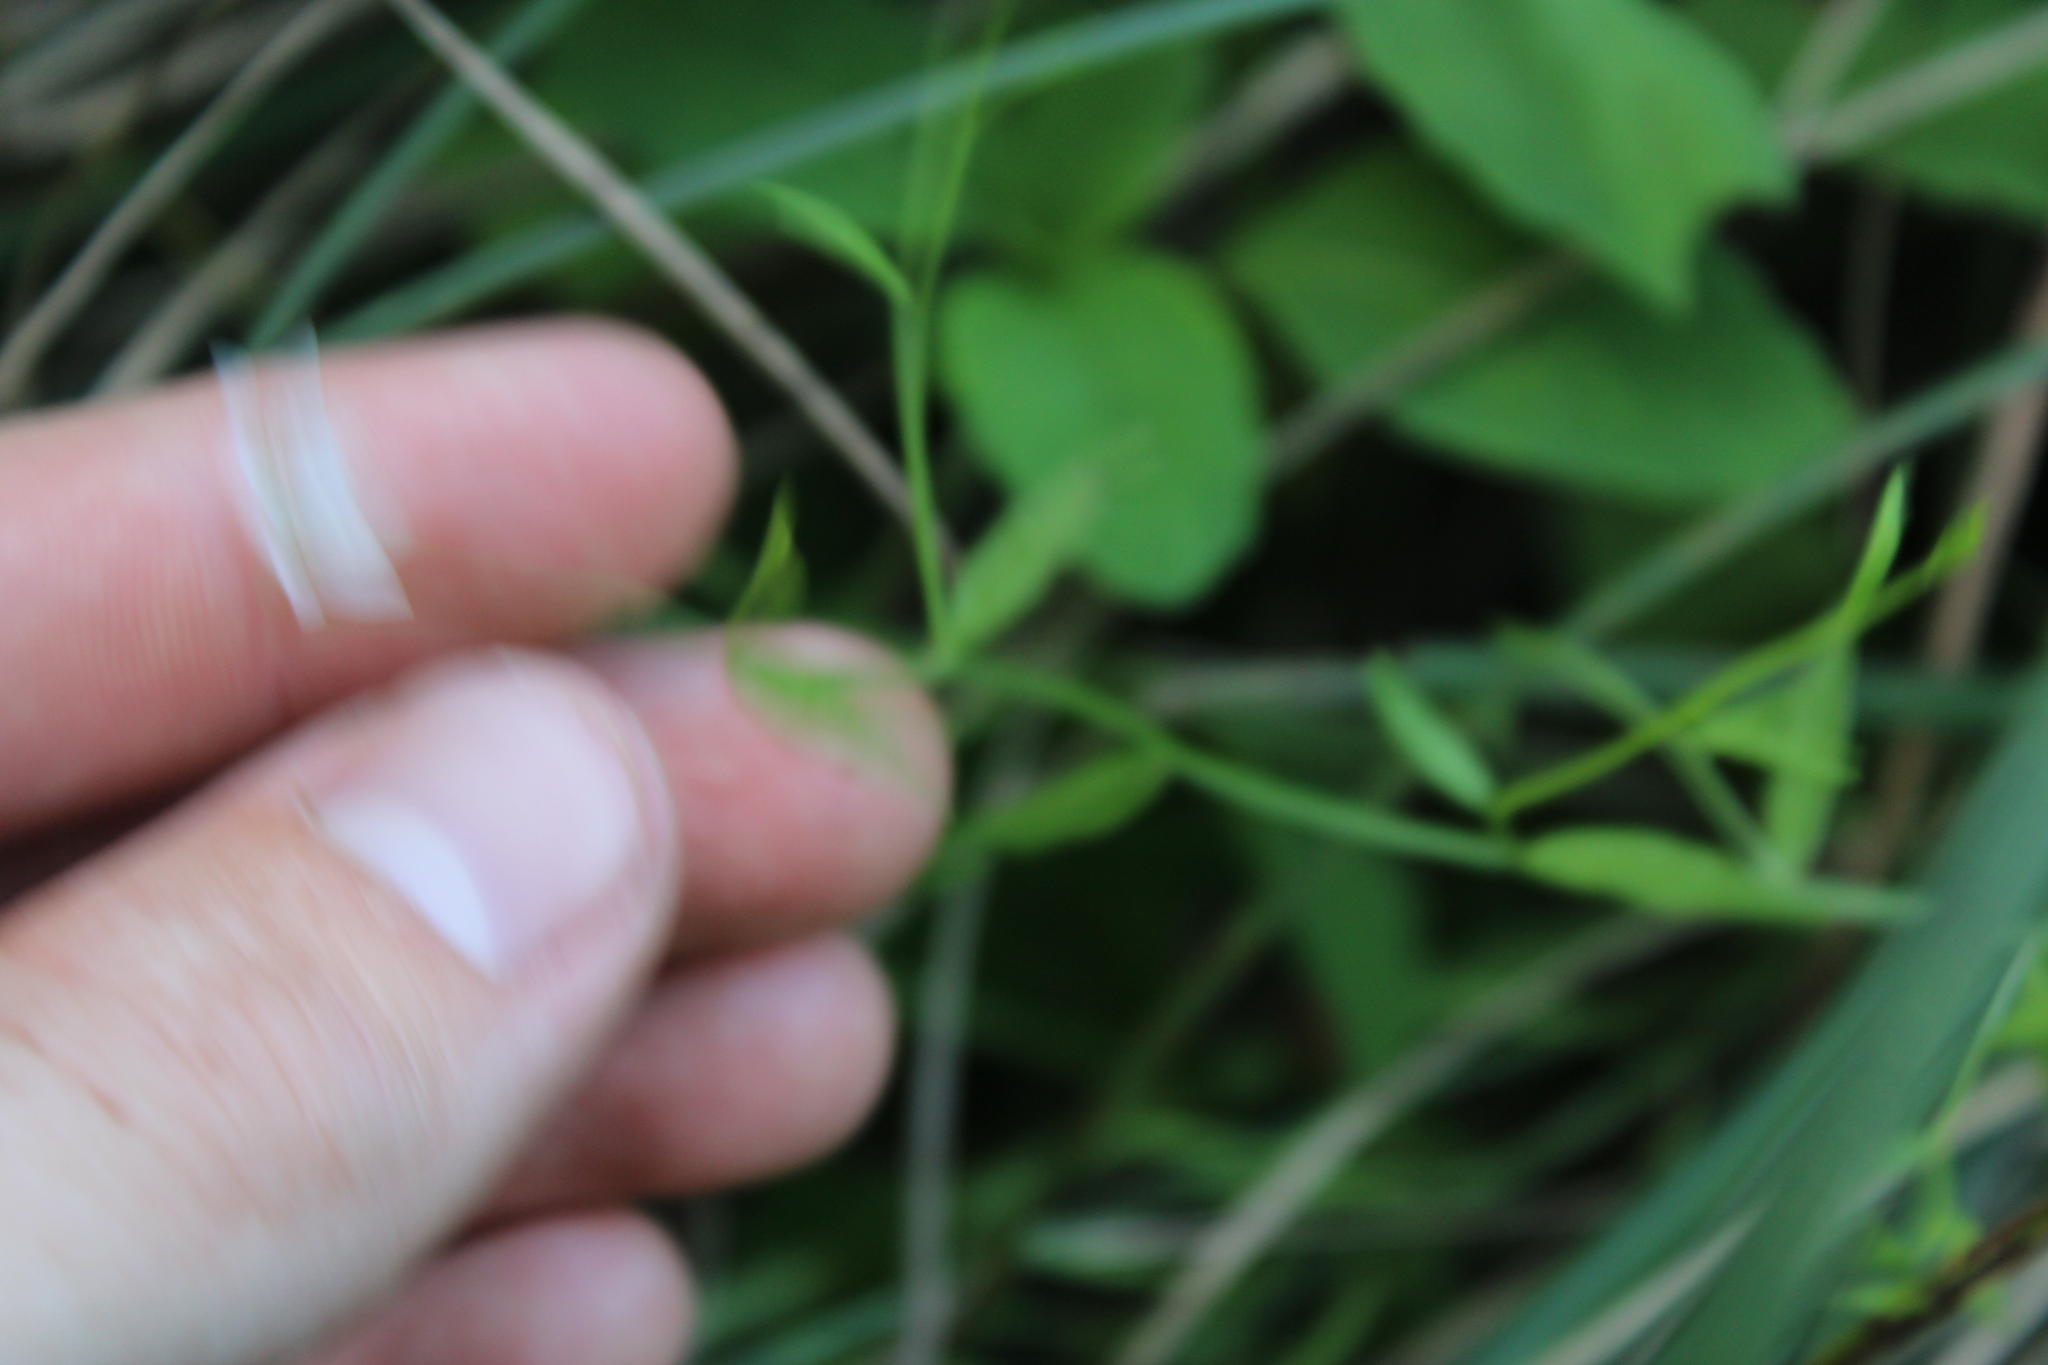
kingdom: Plantae
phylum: Tracheophyta
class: Magnoliopsida
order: Asterales
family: Campanulaceae
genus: Palustricodon
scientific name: Palustricodon aparinoides
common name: Bedstraw bellflower
